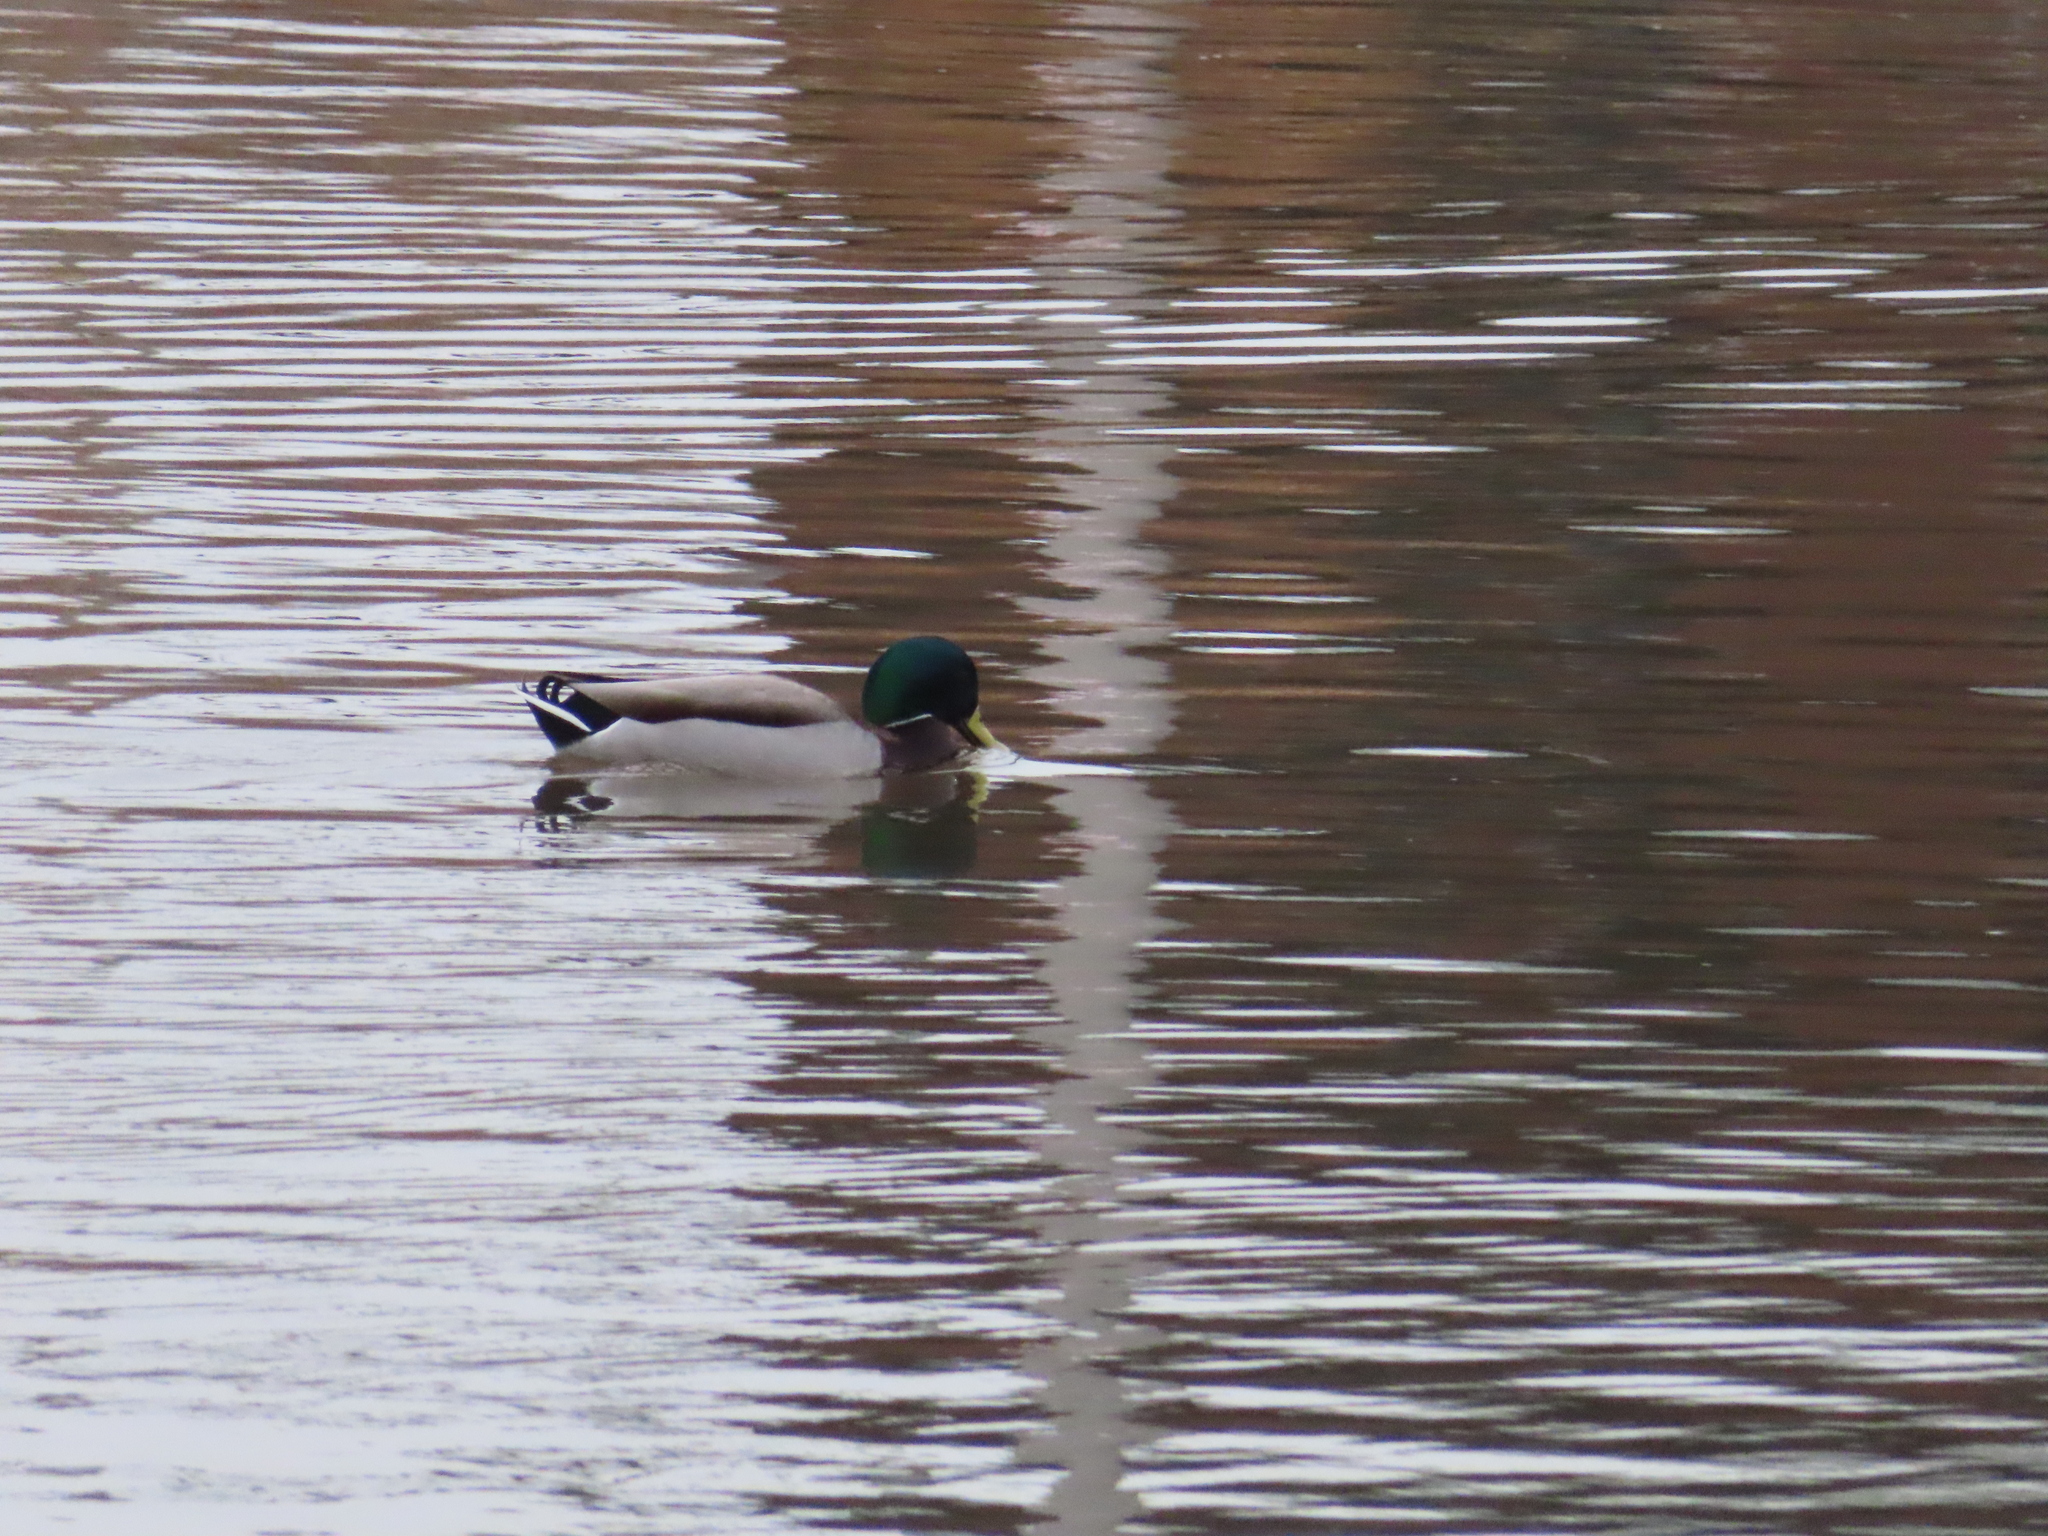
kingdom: Animalia
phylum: Chordata
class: Aves
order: Anseriformes
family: Anatidae
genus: Anas
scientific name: Anas platyrhynchos
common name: Mallard
